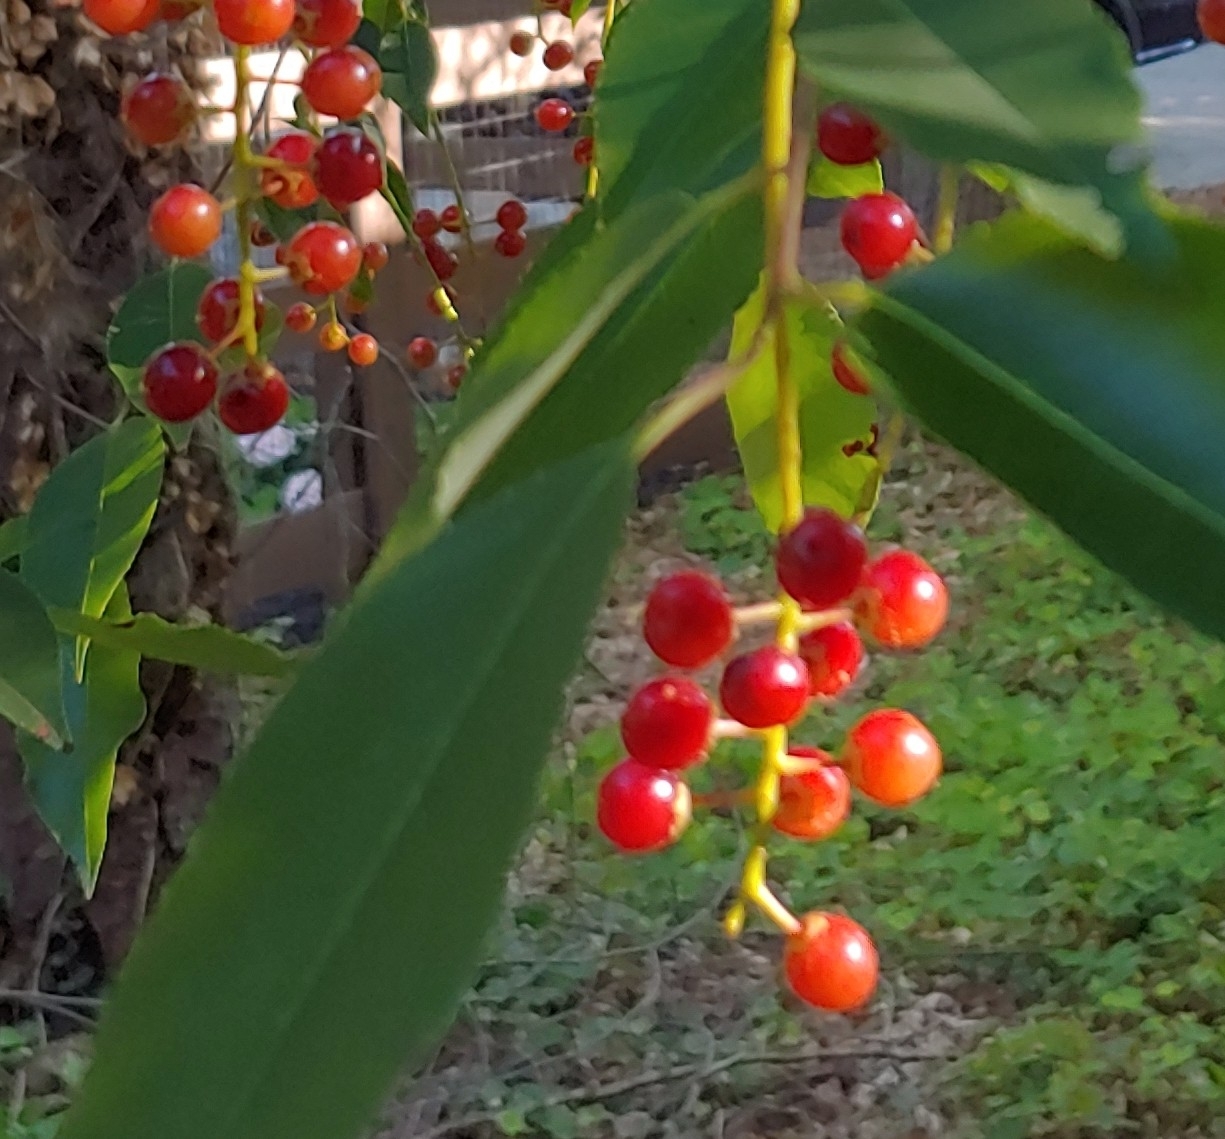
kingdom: Plantae
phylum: Tracheophyta
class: Magnoliopsida
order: Rosales
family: Rosaceae
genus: Prunus
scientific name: Prunus serotina
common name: Black cherry
